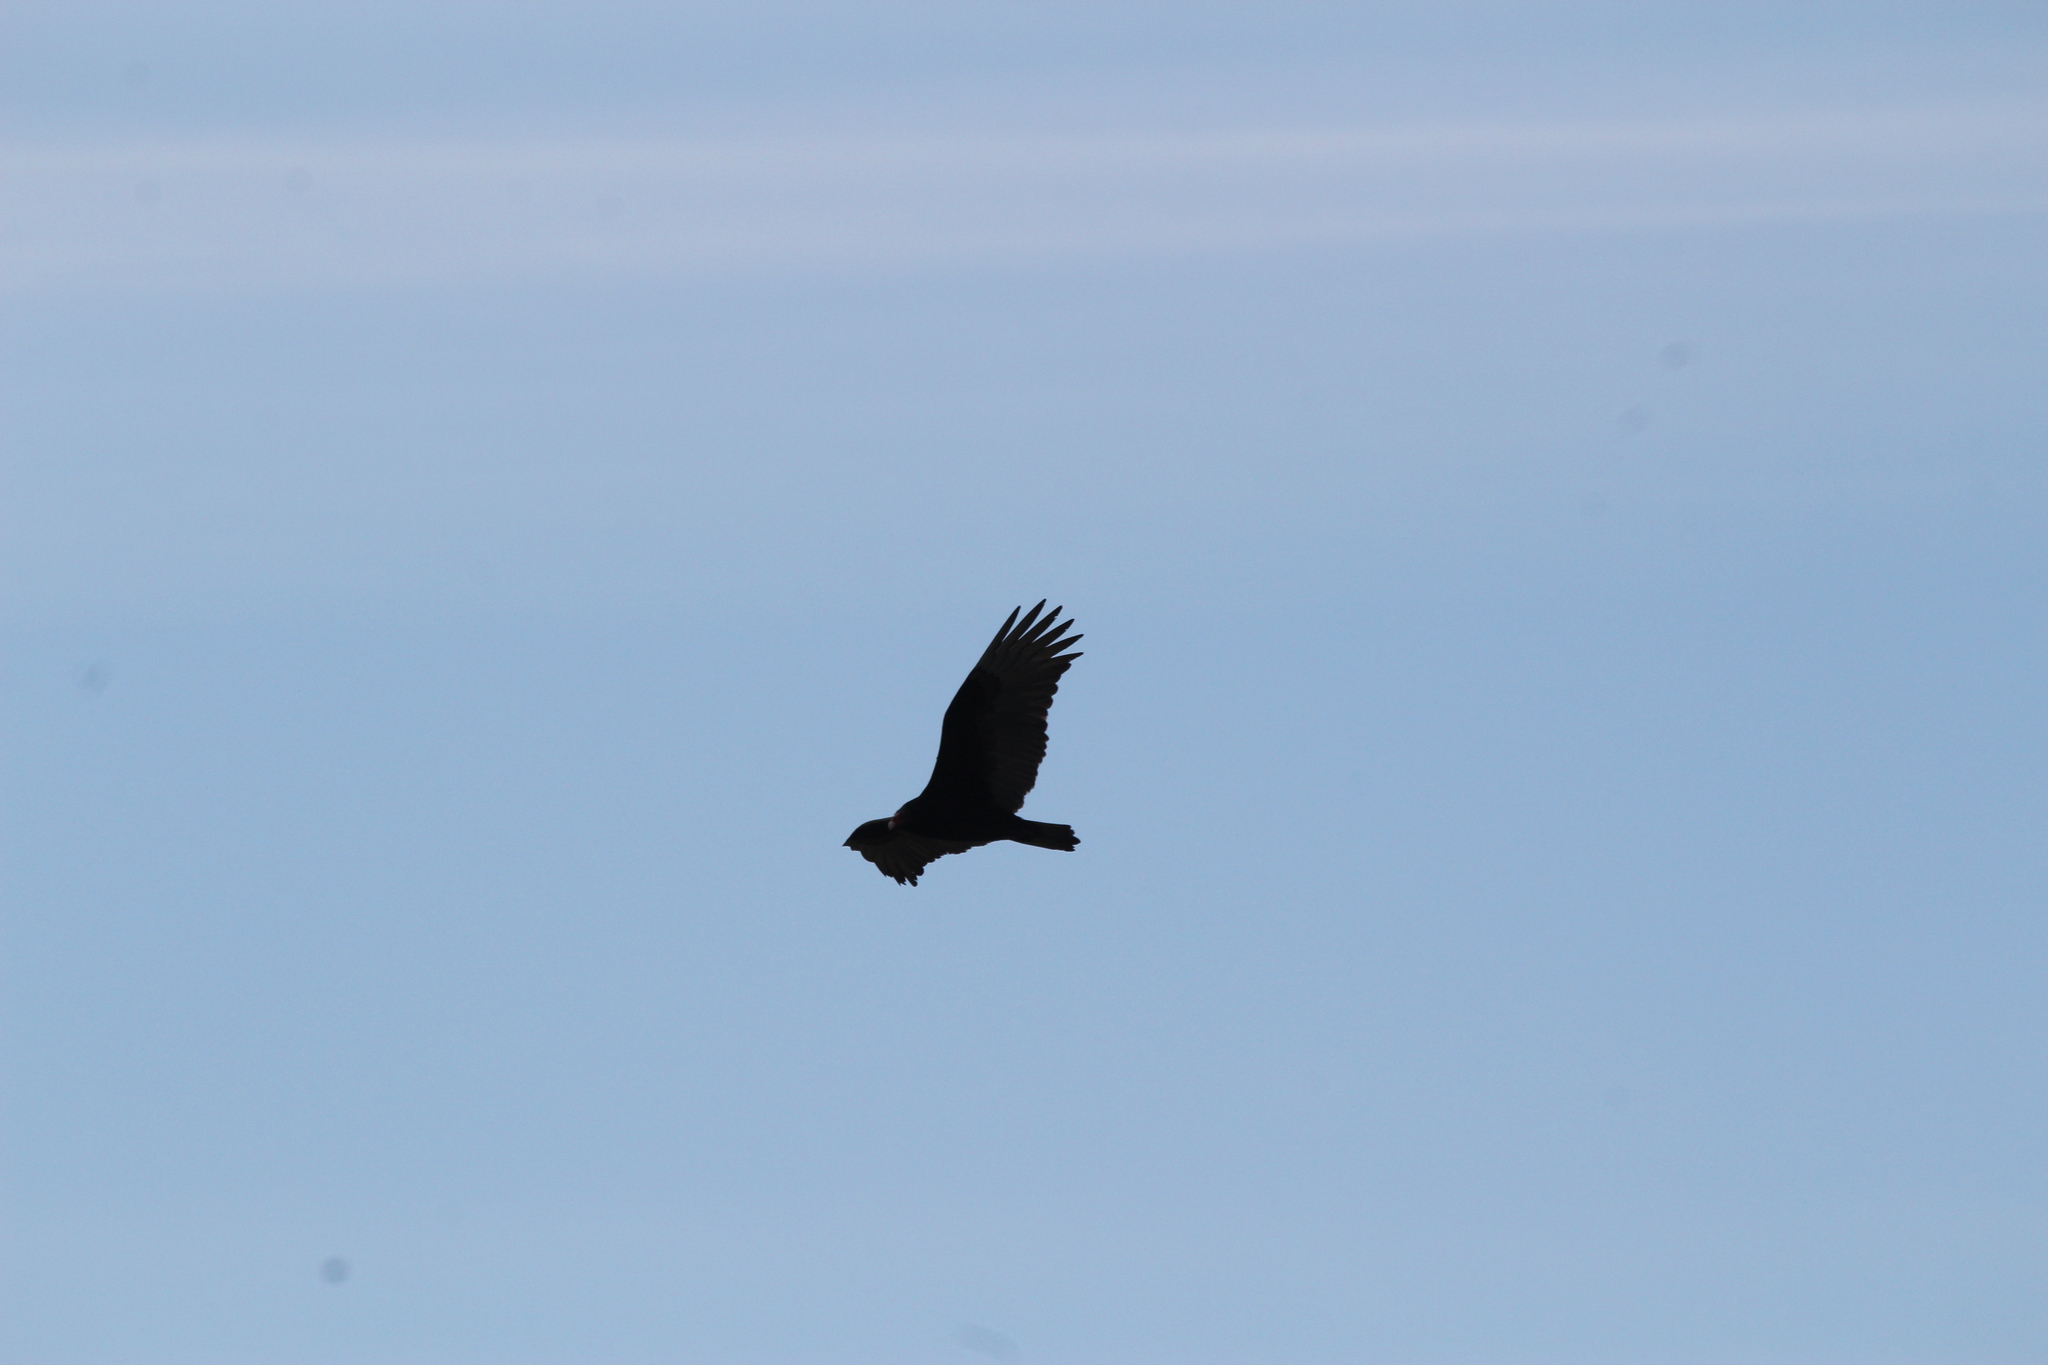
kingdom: Animalia
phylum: Chordata
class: Aves
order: Accipitriformes
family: Cathartidae
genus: Cathartes
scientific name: Cathartes aura
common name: Turkey vulture
